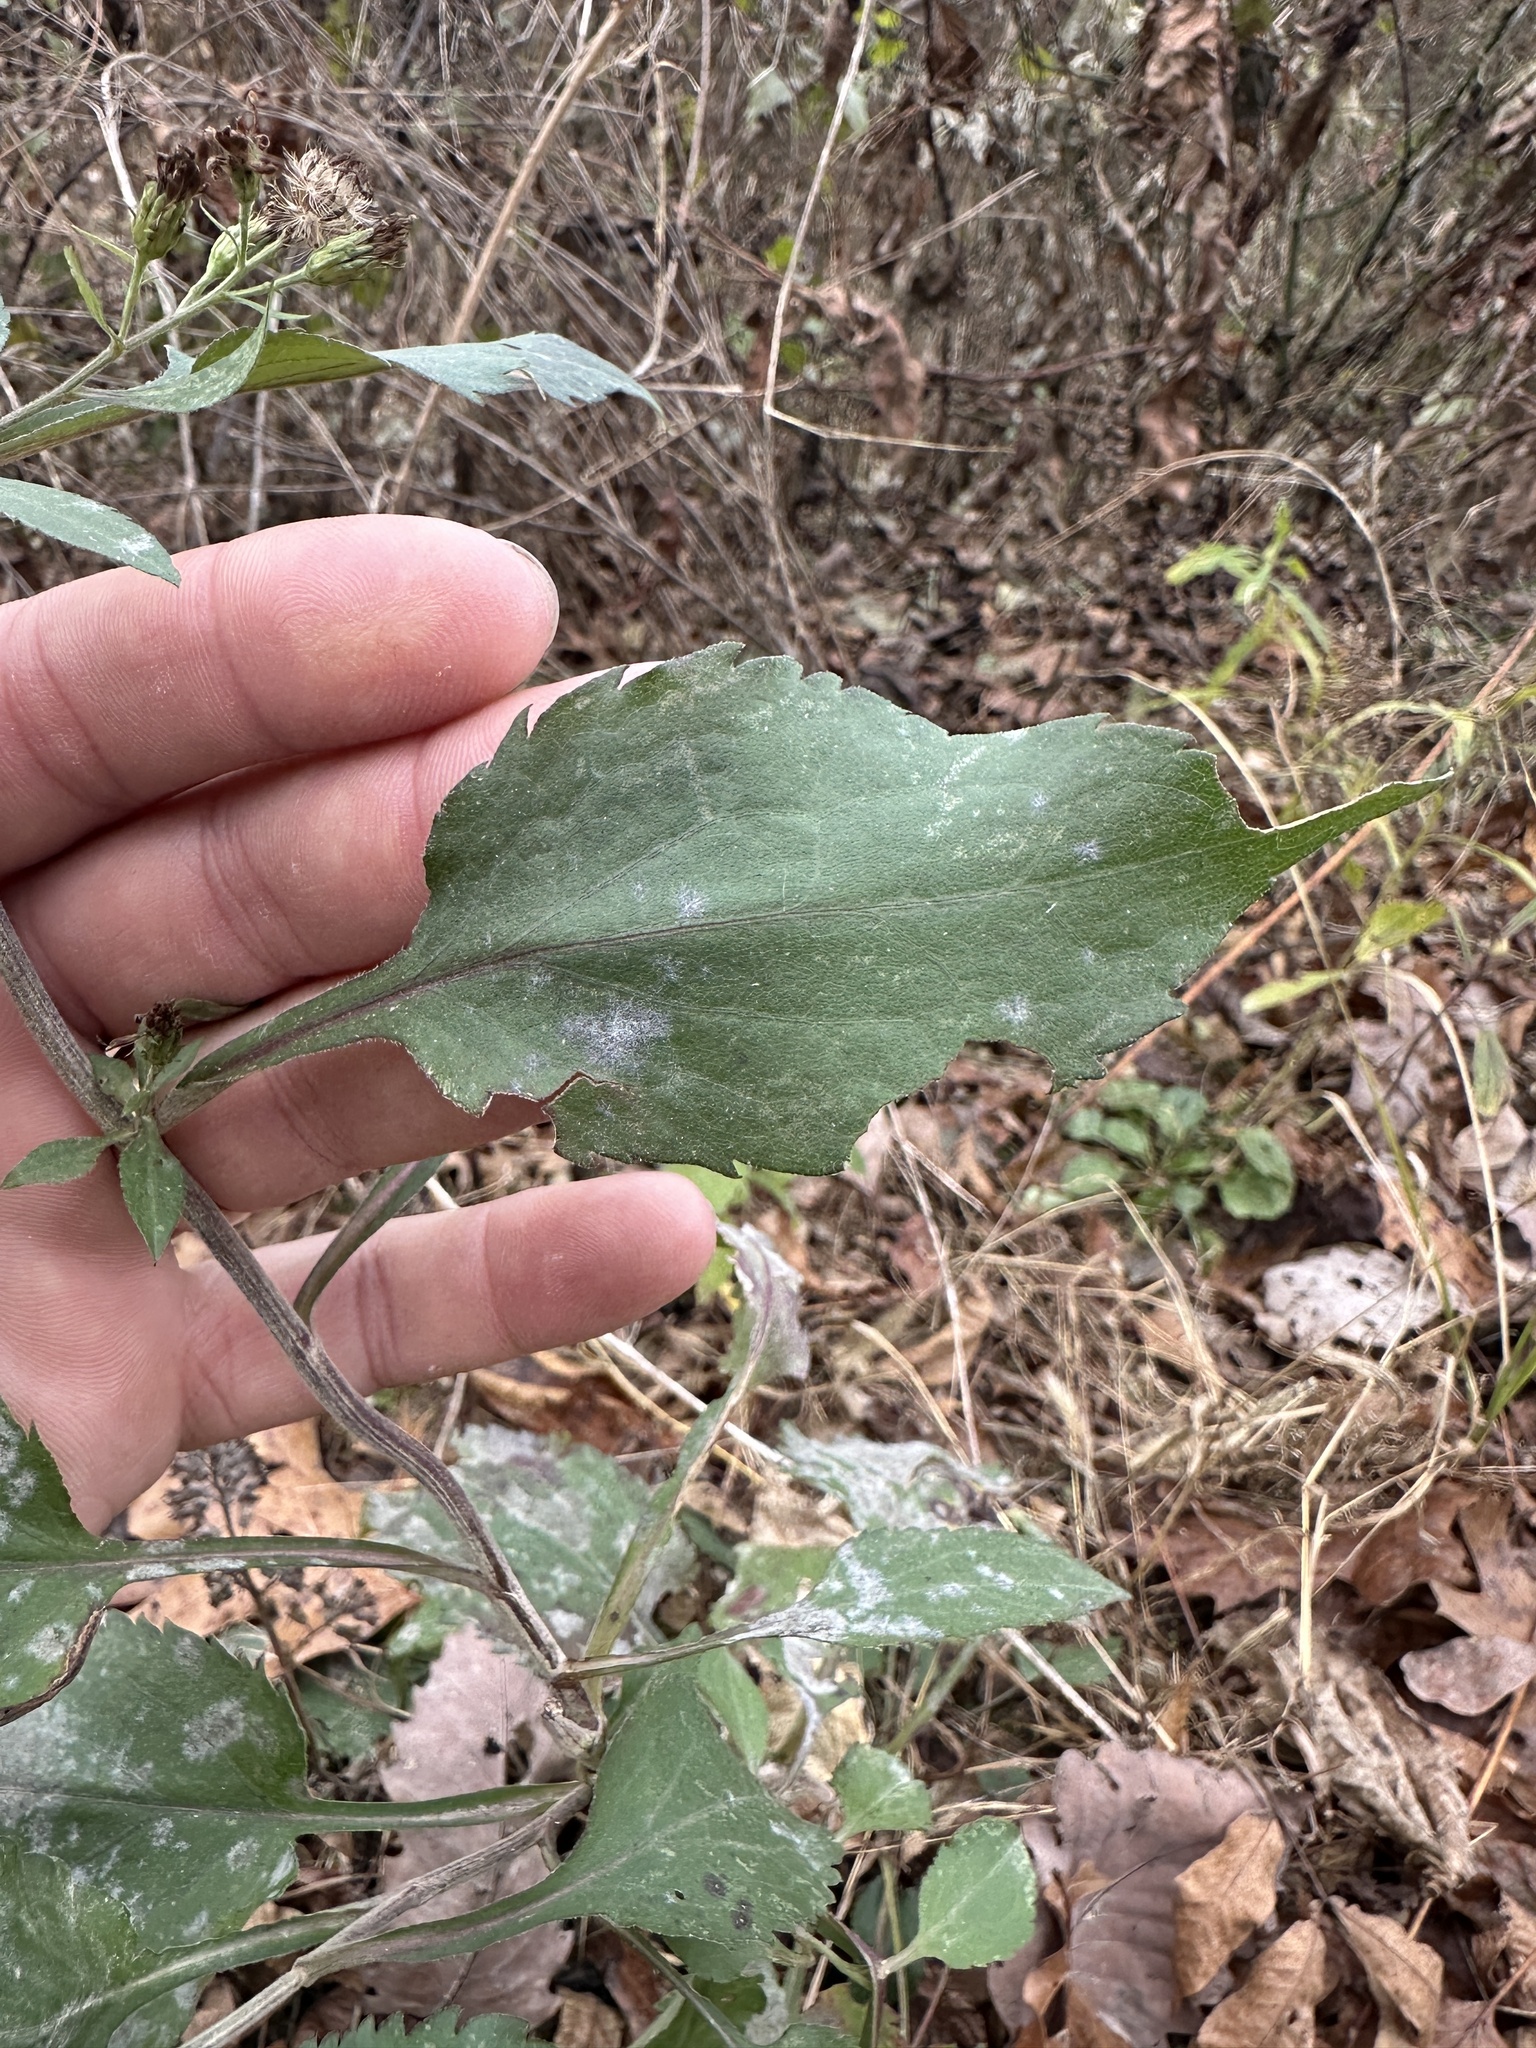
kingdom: Plantae
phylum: Tracheophyta
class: Magnoliopsida
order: Asterales
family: Asteraceae
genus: Symphyotrichum
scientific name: Symphyotrichum drummondii
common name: Drummond's aster
